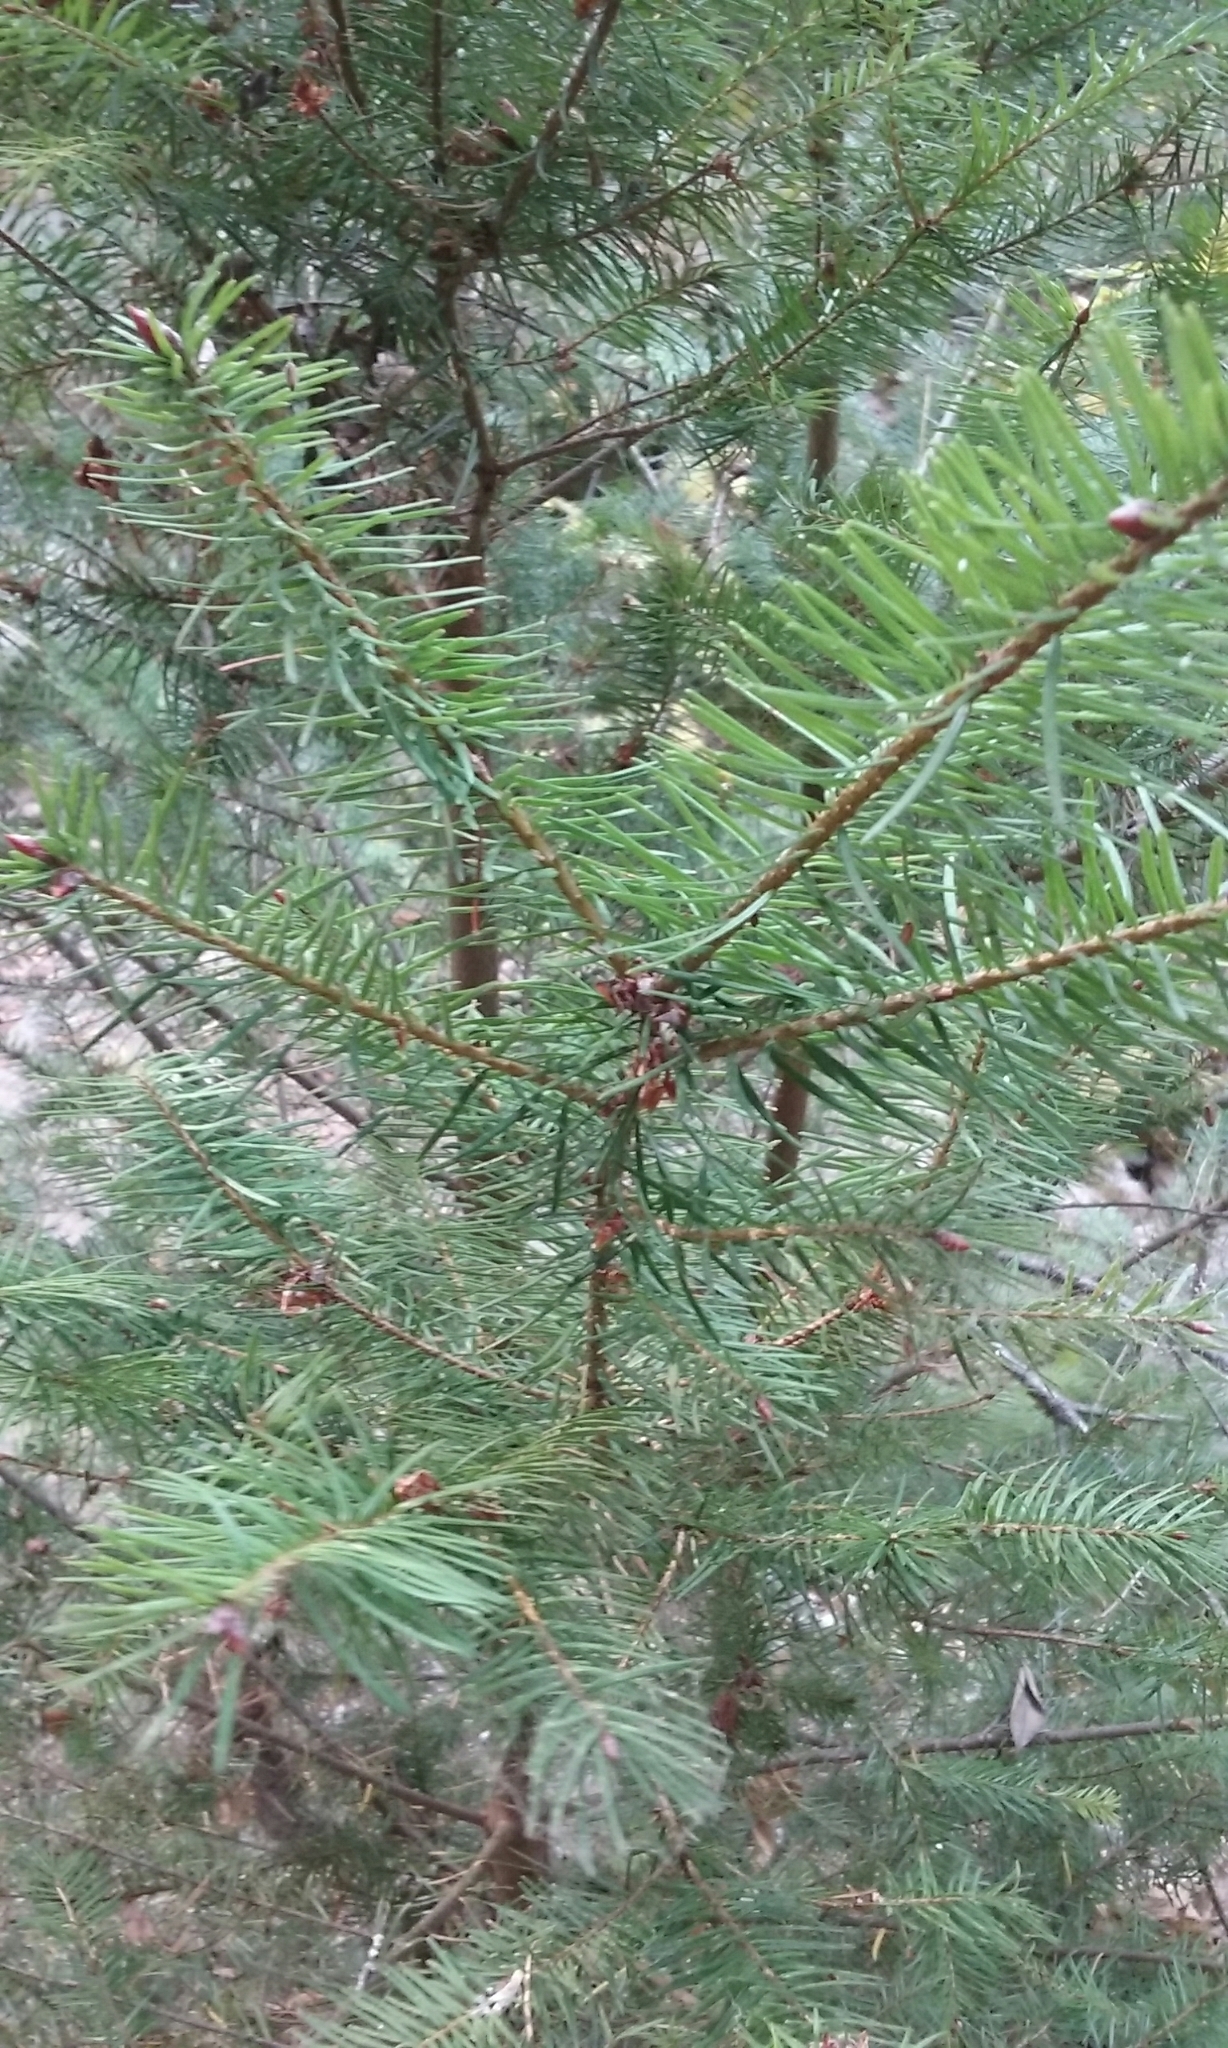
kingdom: Plantae
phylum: Tracheophyta
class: Pinopsida
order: Pinales
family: Pinaceae
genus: Pseudotsuga
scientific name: Pseudotsuga menziesii
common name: Douglas fir
